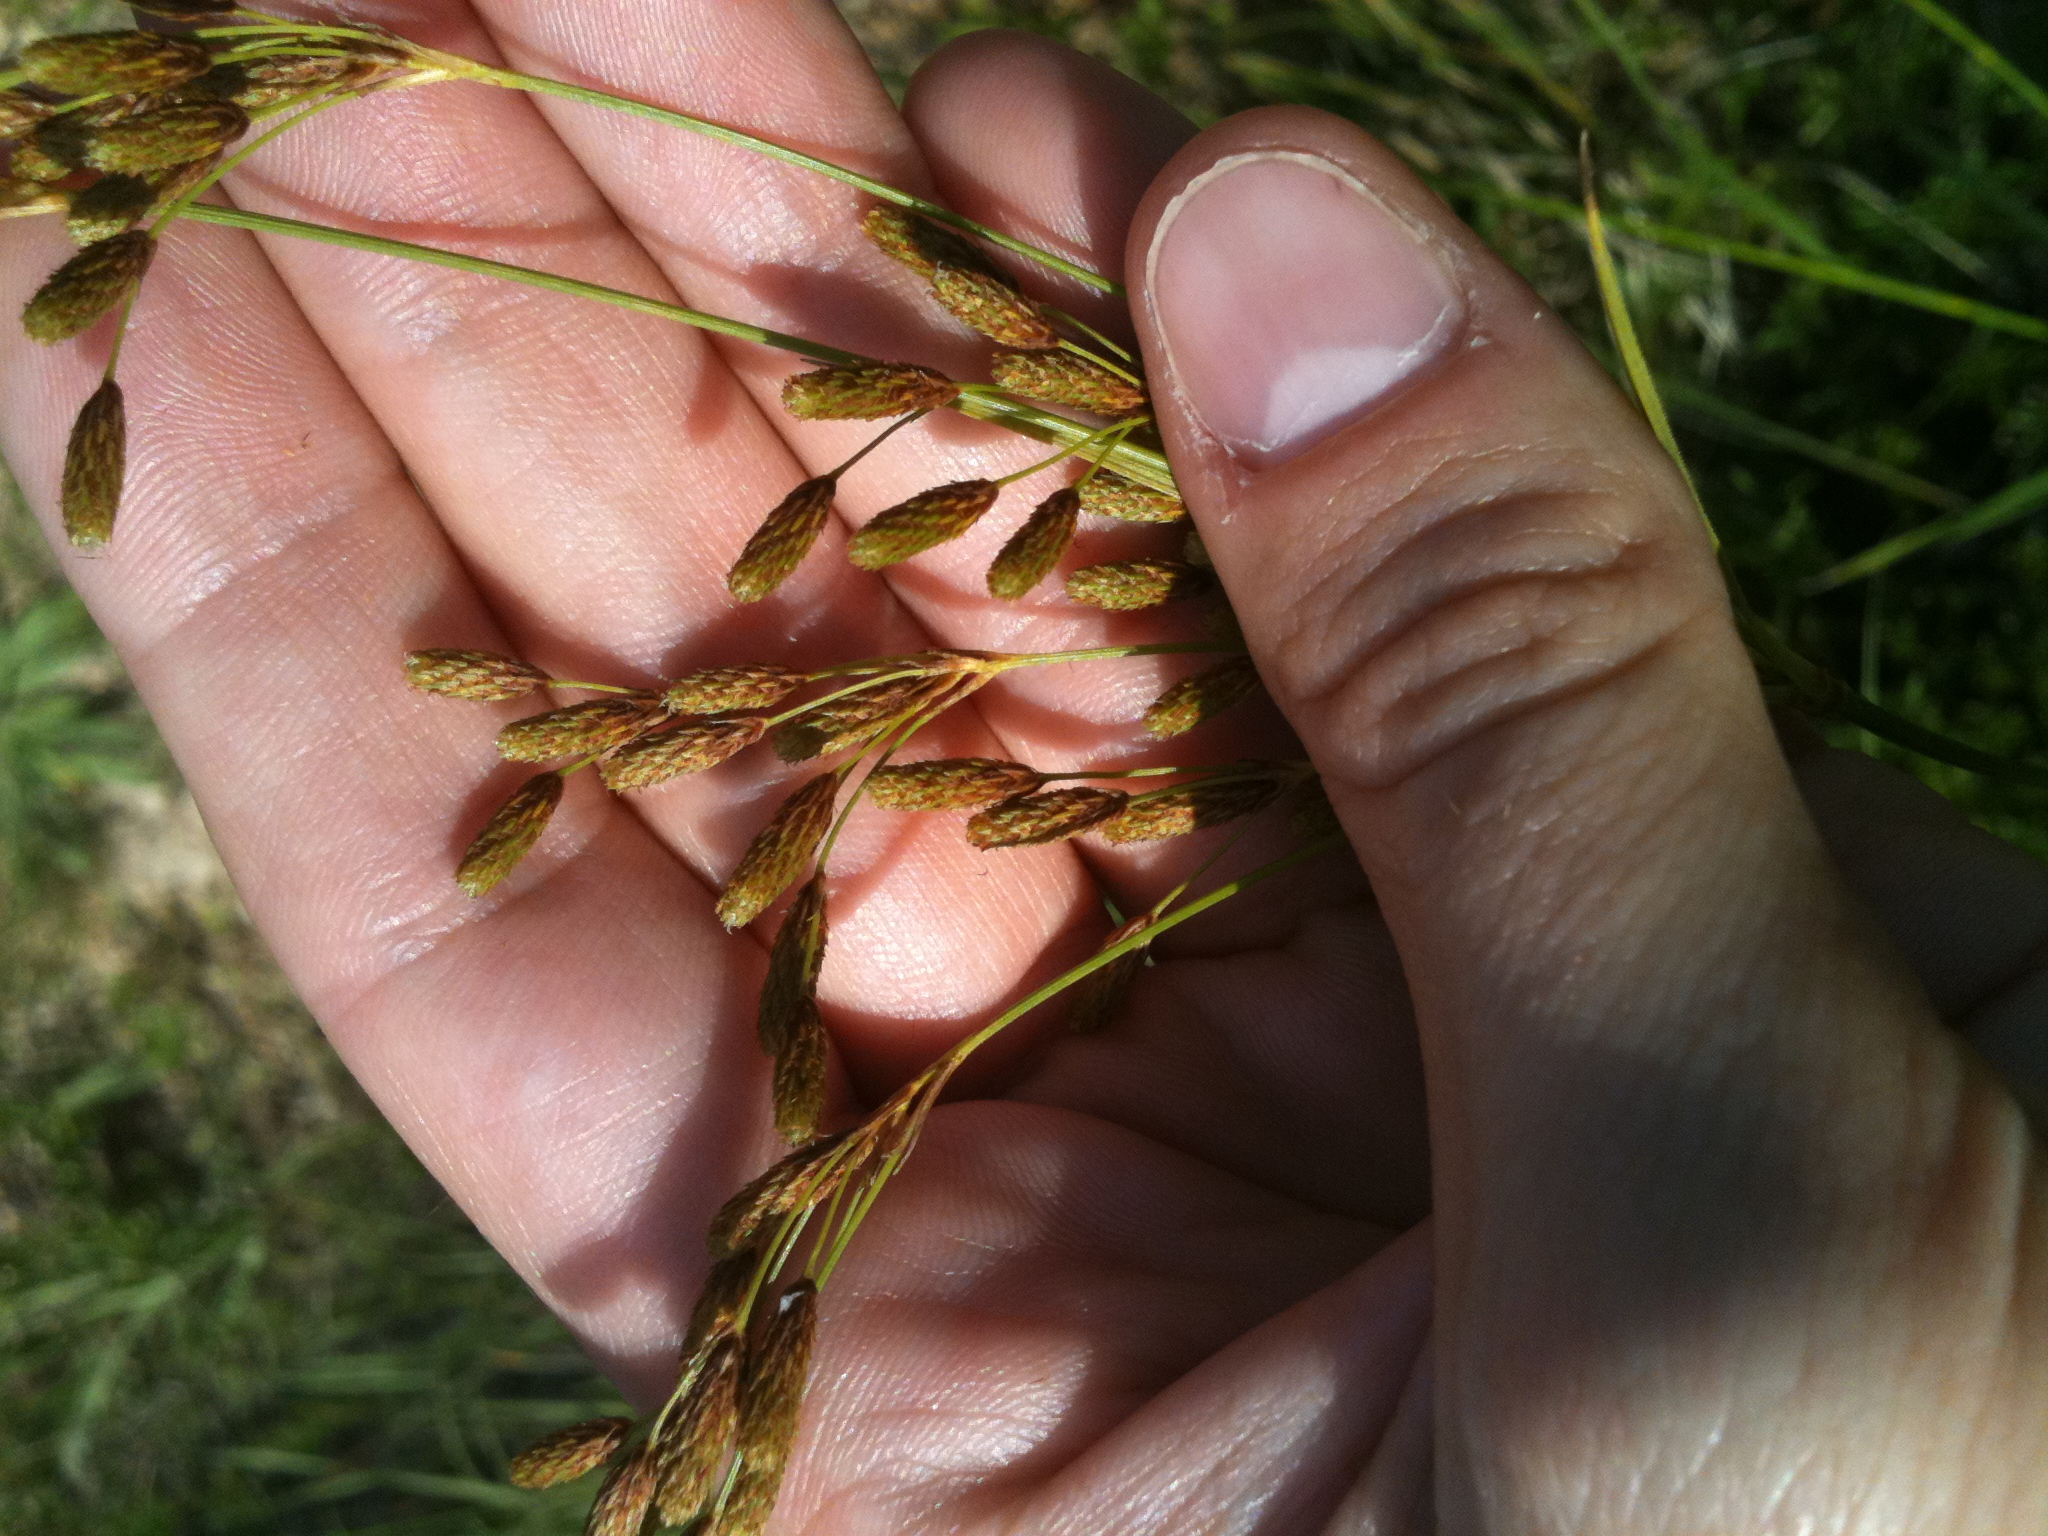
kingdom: Plantae
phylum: Tracheophyta
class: Liliopsida
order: Poales
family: Cyperaceae
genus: Scirpus
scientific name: Scirpus pendulus
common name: Nodding bulrush
